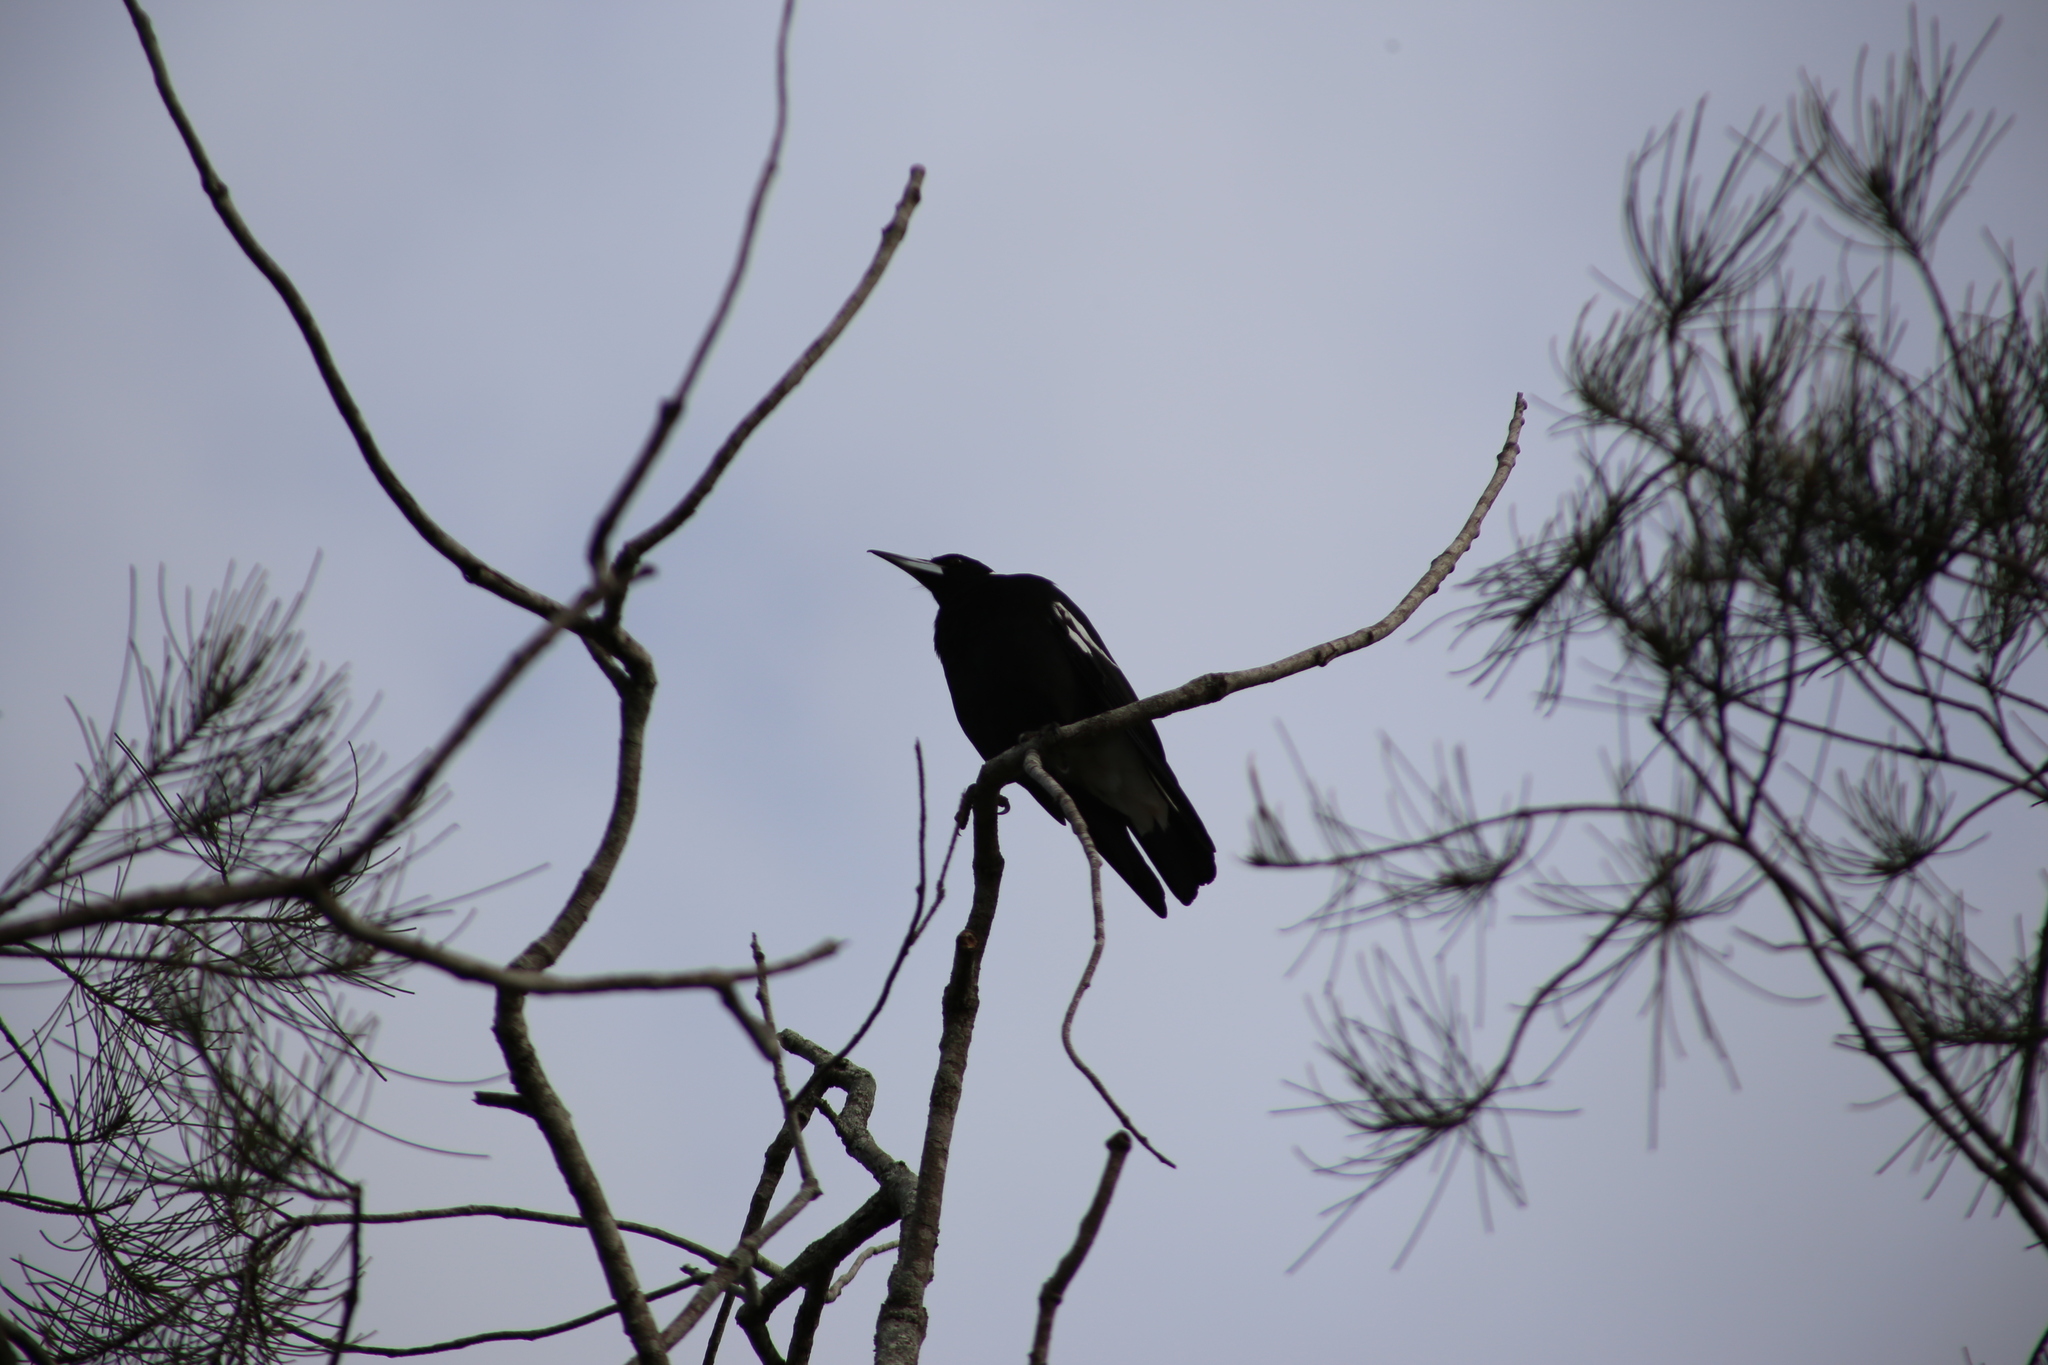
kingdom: Animalia
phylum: Chordata
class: Aves
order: Passeriformes
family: Cracticidae
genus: Gymnorhina
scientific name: Gymnorhina tibicen
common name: Australian magpie
